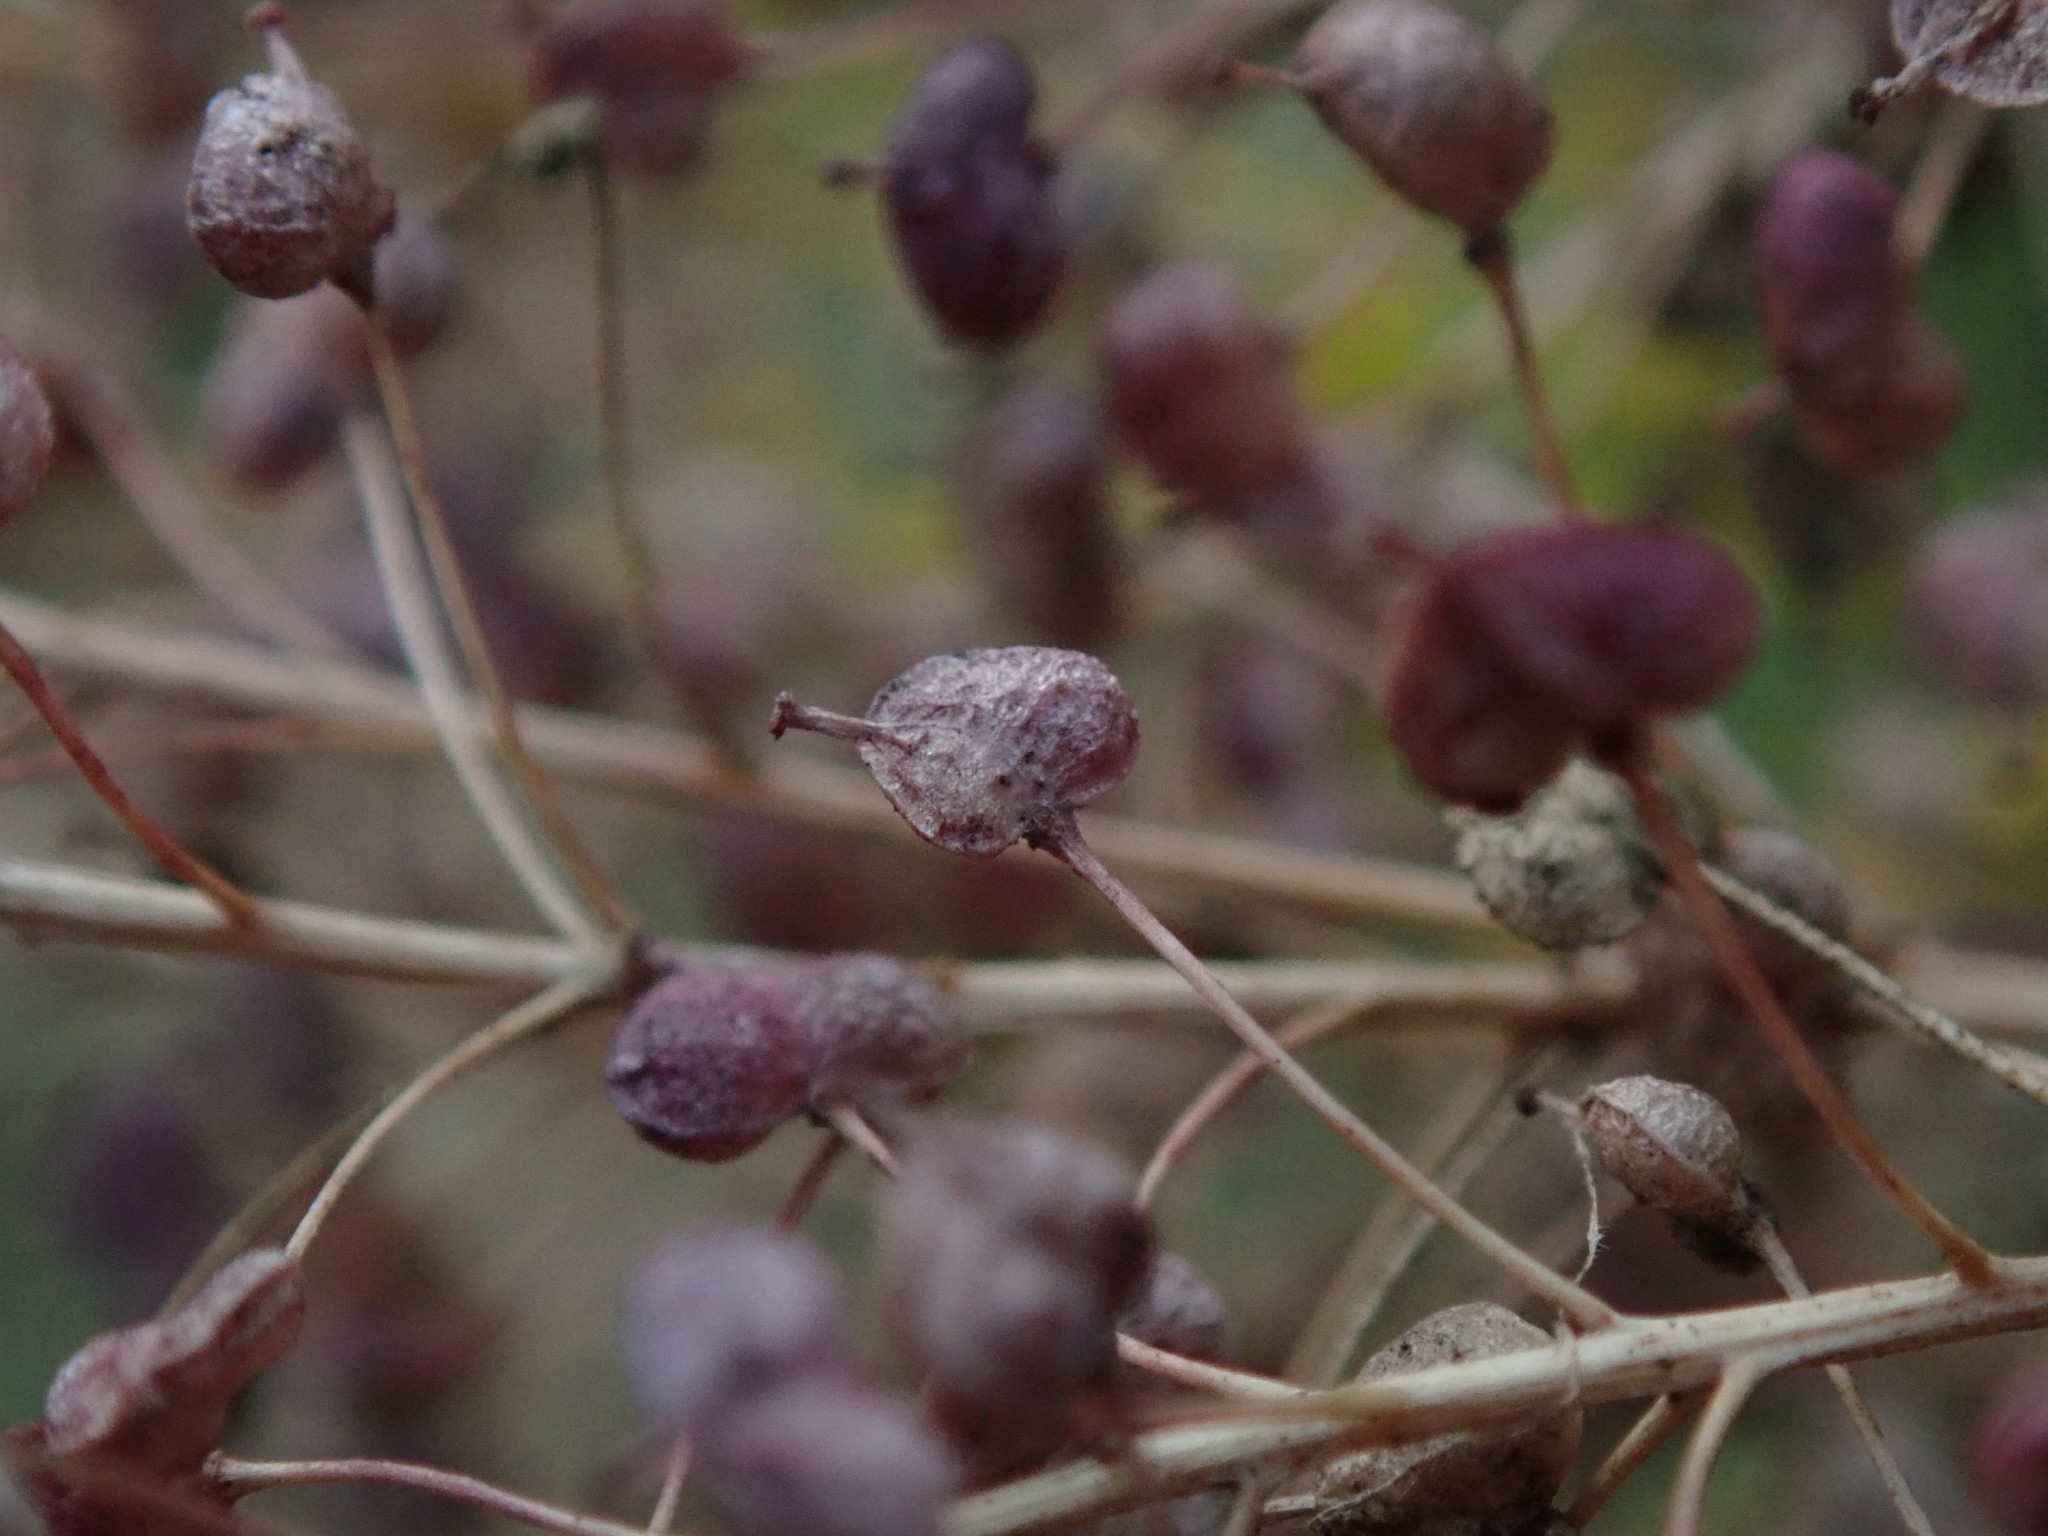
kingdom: Plantae
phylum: Tracheophyta
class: Magnoliopsida
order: Brassicales
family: Brassicaceae
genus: Lepidium
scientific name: Lepidium draba
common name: Hoary cress
